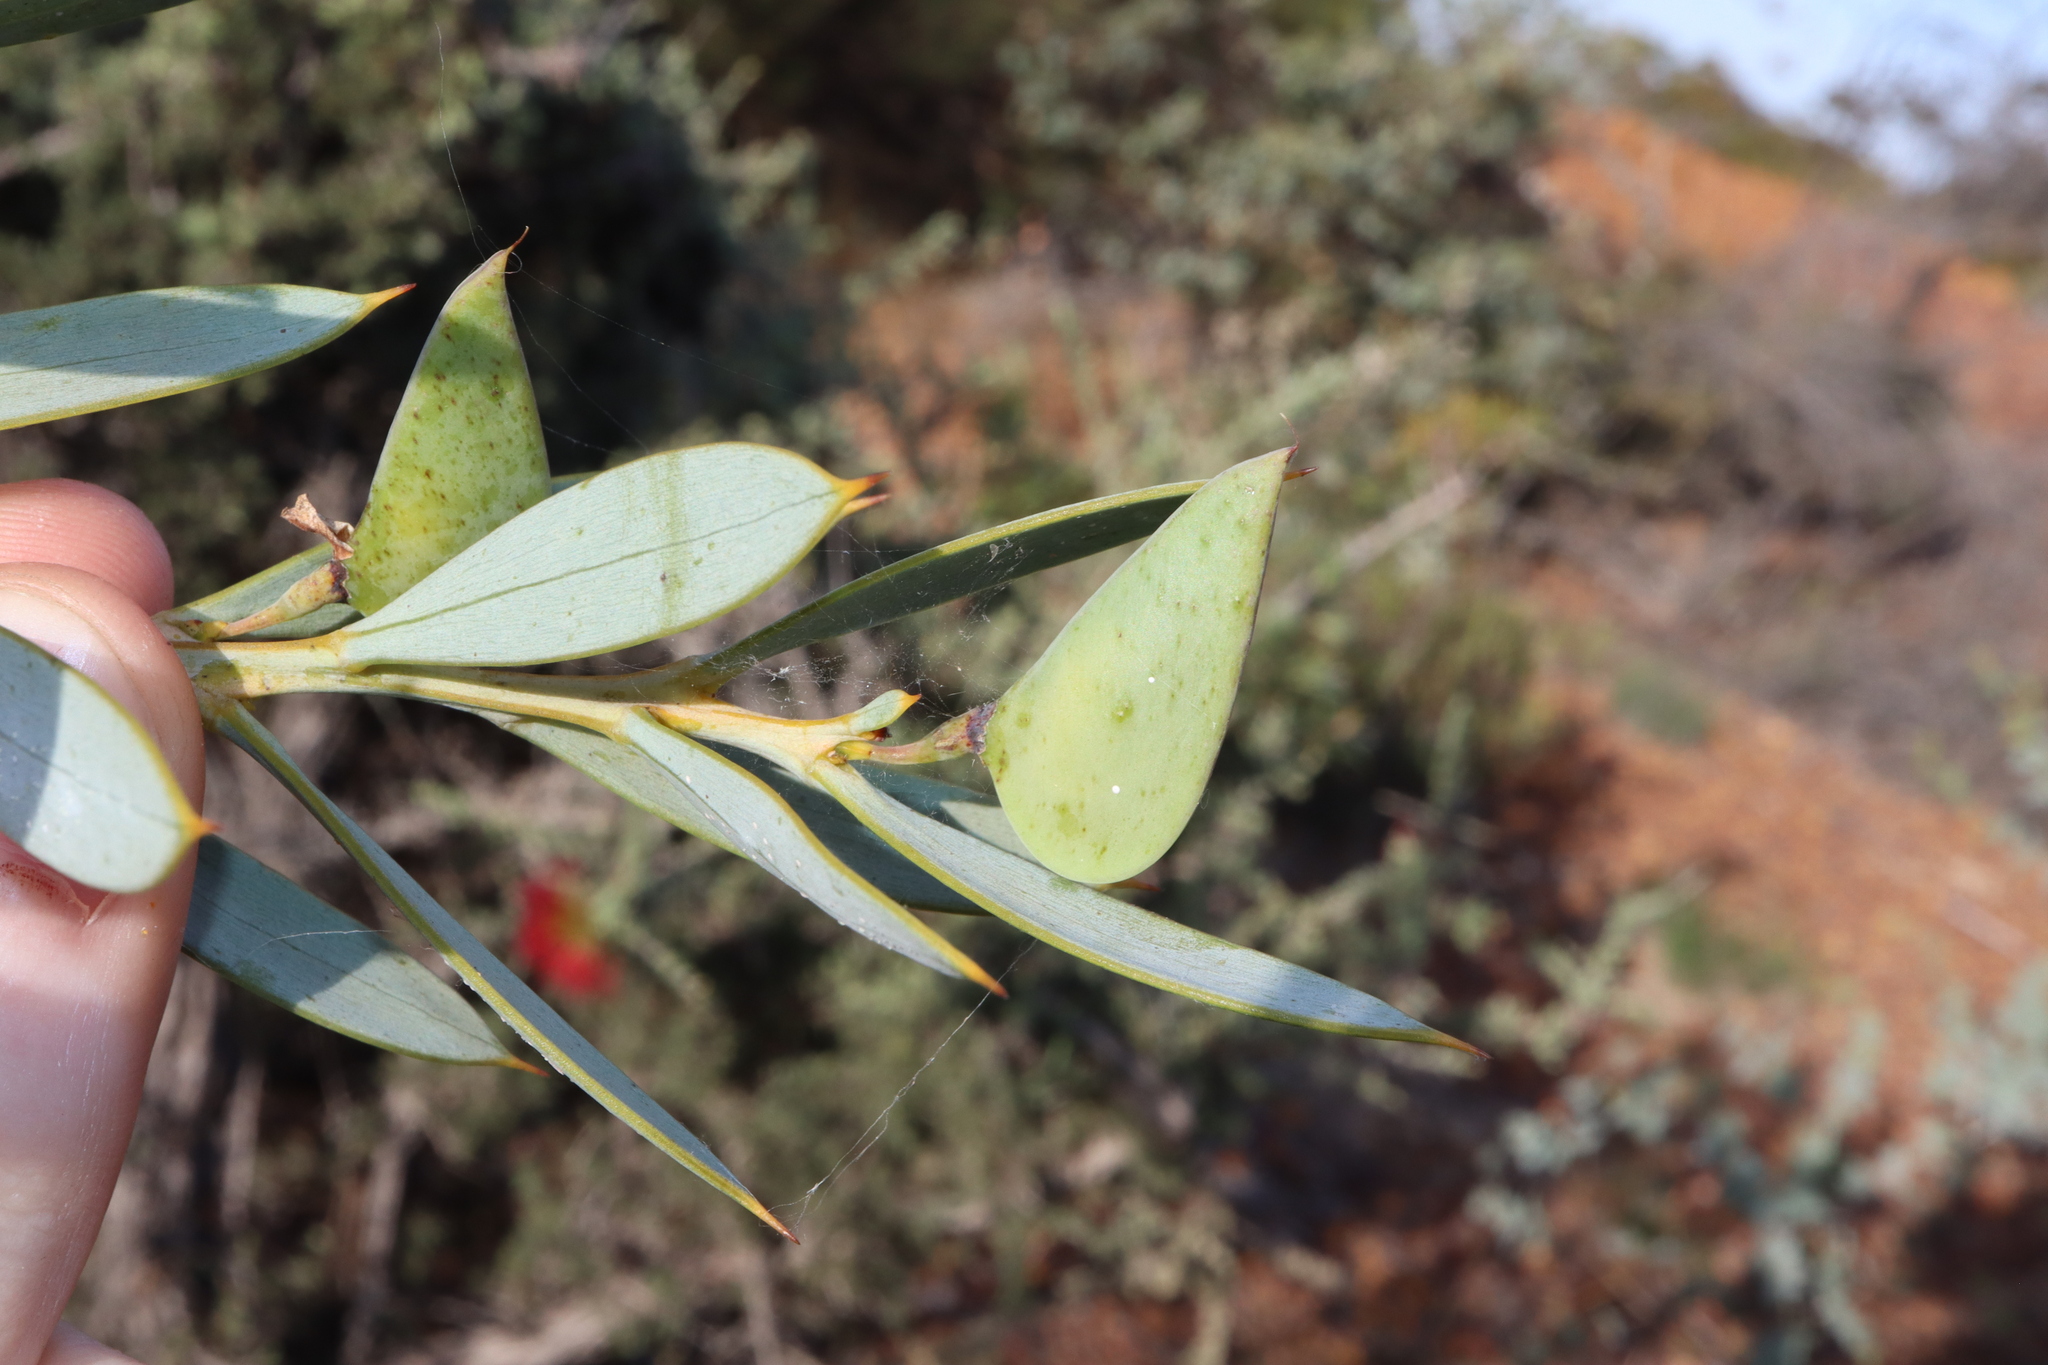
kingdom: Plantae
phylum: Tracheophyta
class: Magnoliopsida
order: Fabales
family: Fabaceae
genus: Daviesia
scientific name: Daviesia audax
